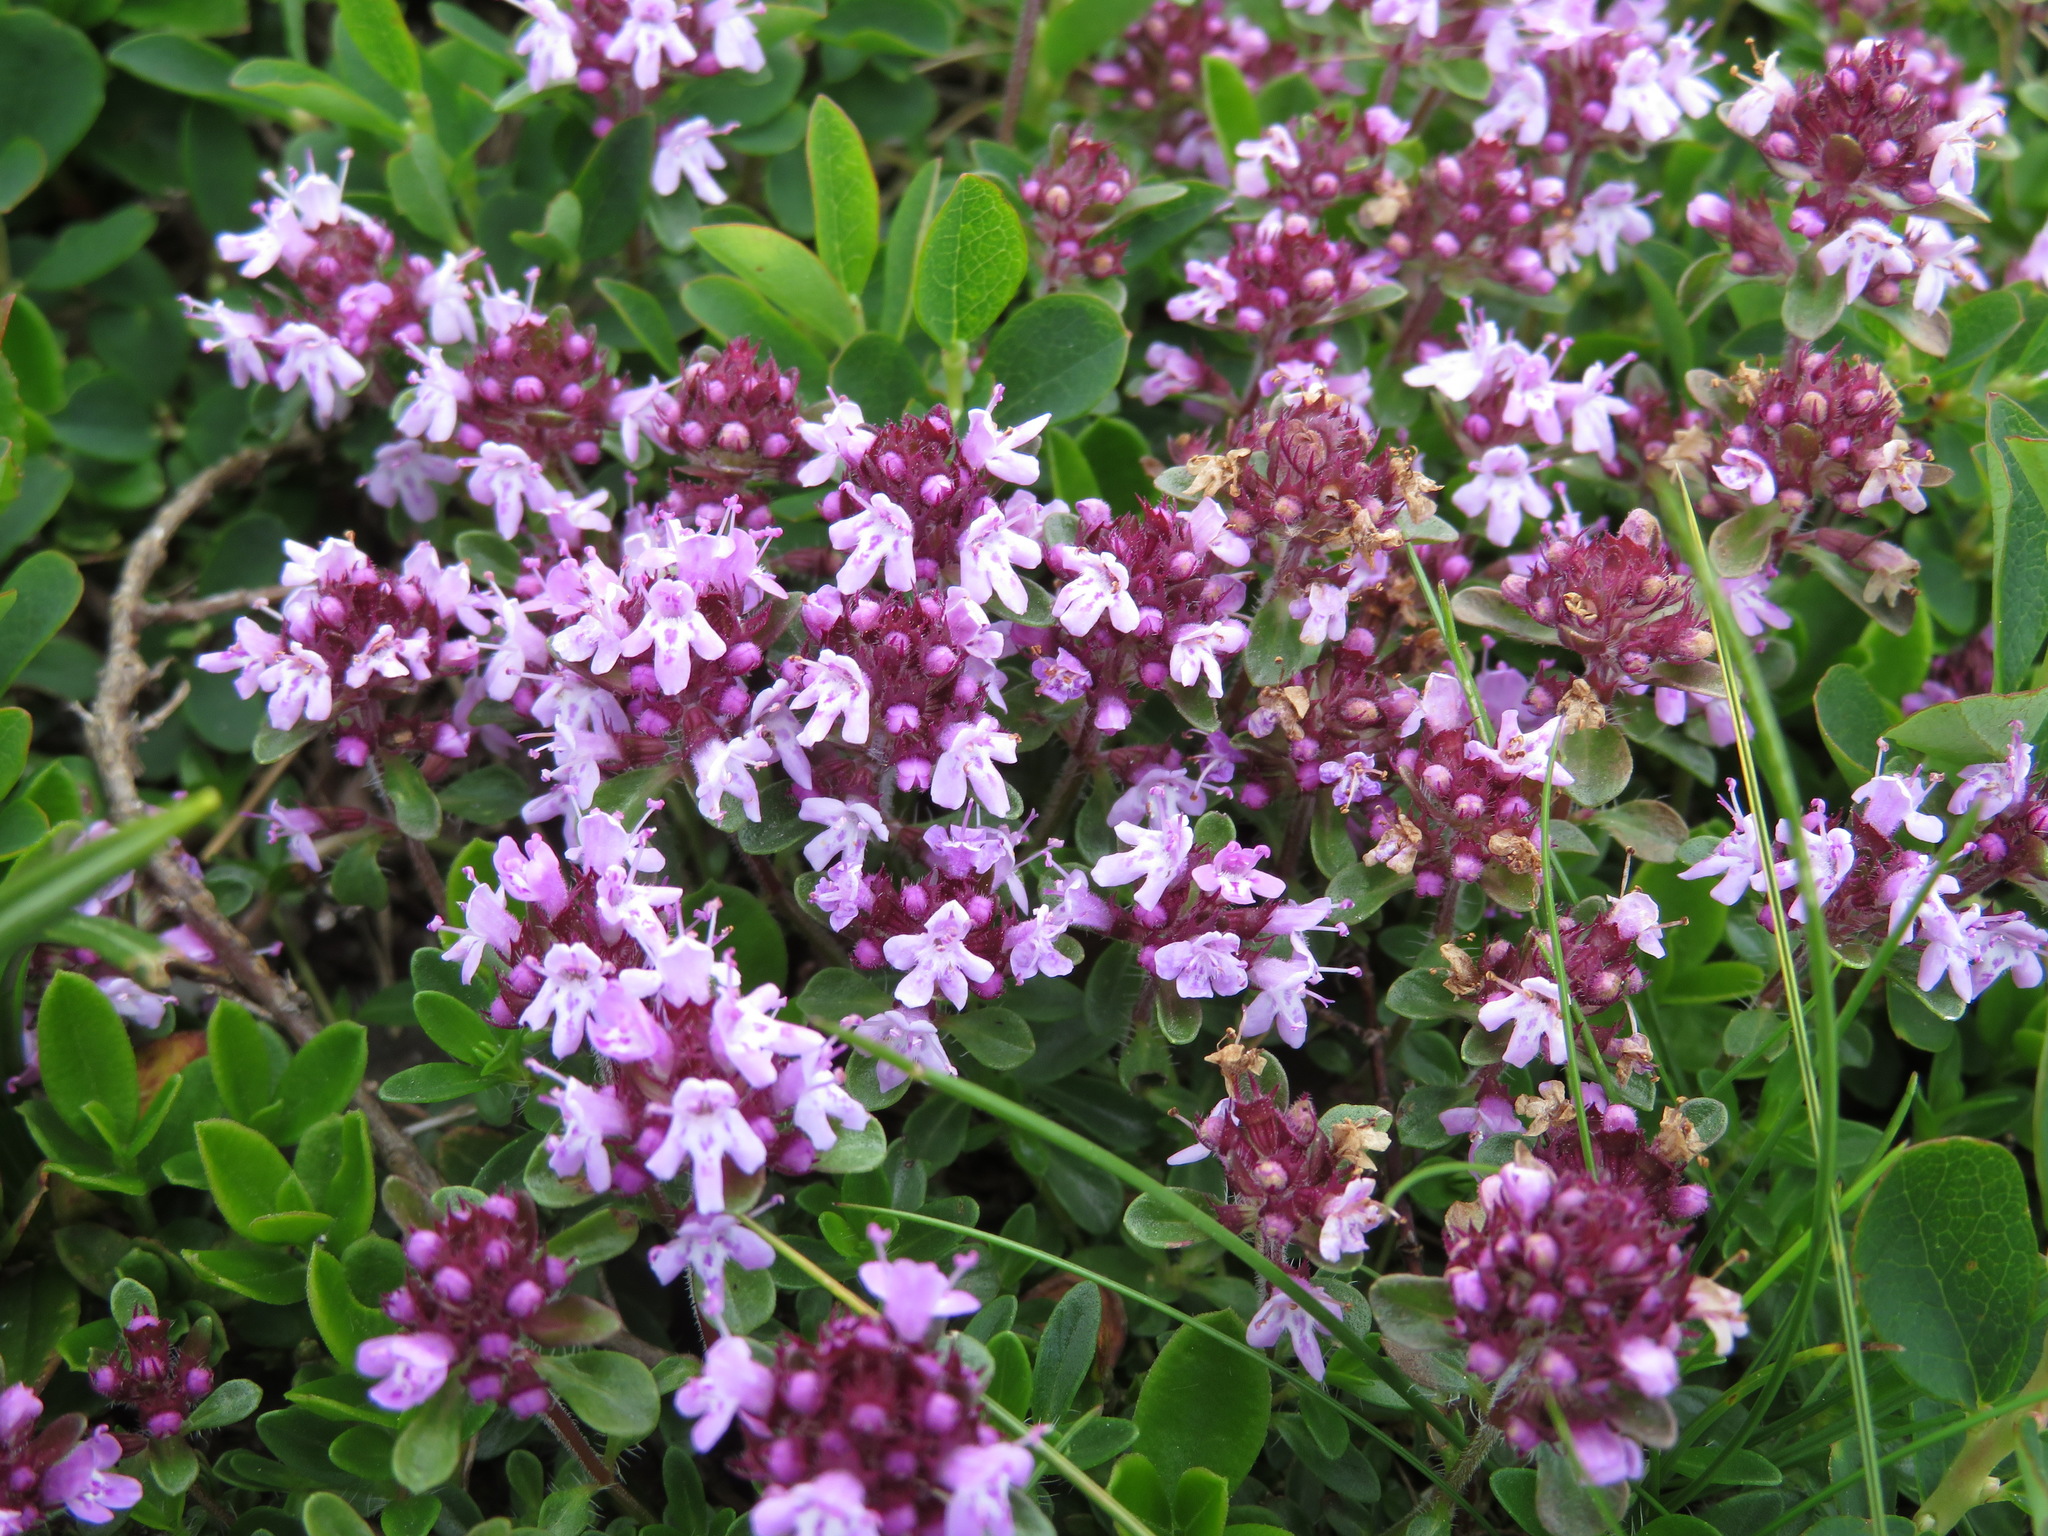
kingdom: Plantae
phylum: Tracheophyta
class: Magnoliopsida
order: Lamiales
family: Lamiaceae
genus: Thymus
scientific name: Thymus praecox
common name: Wild thyme
